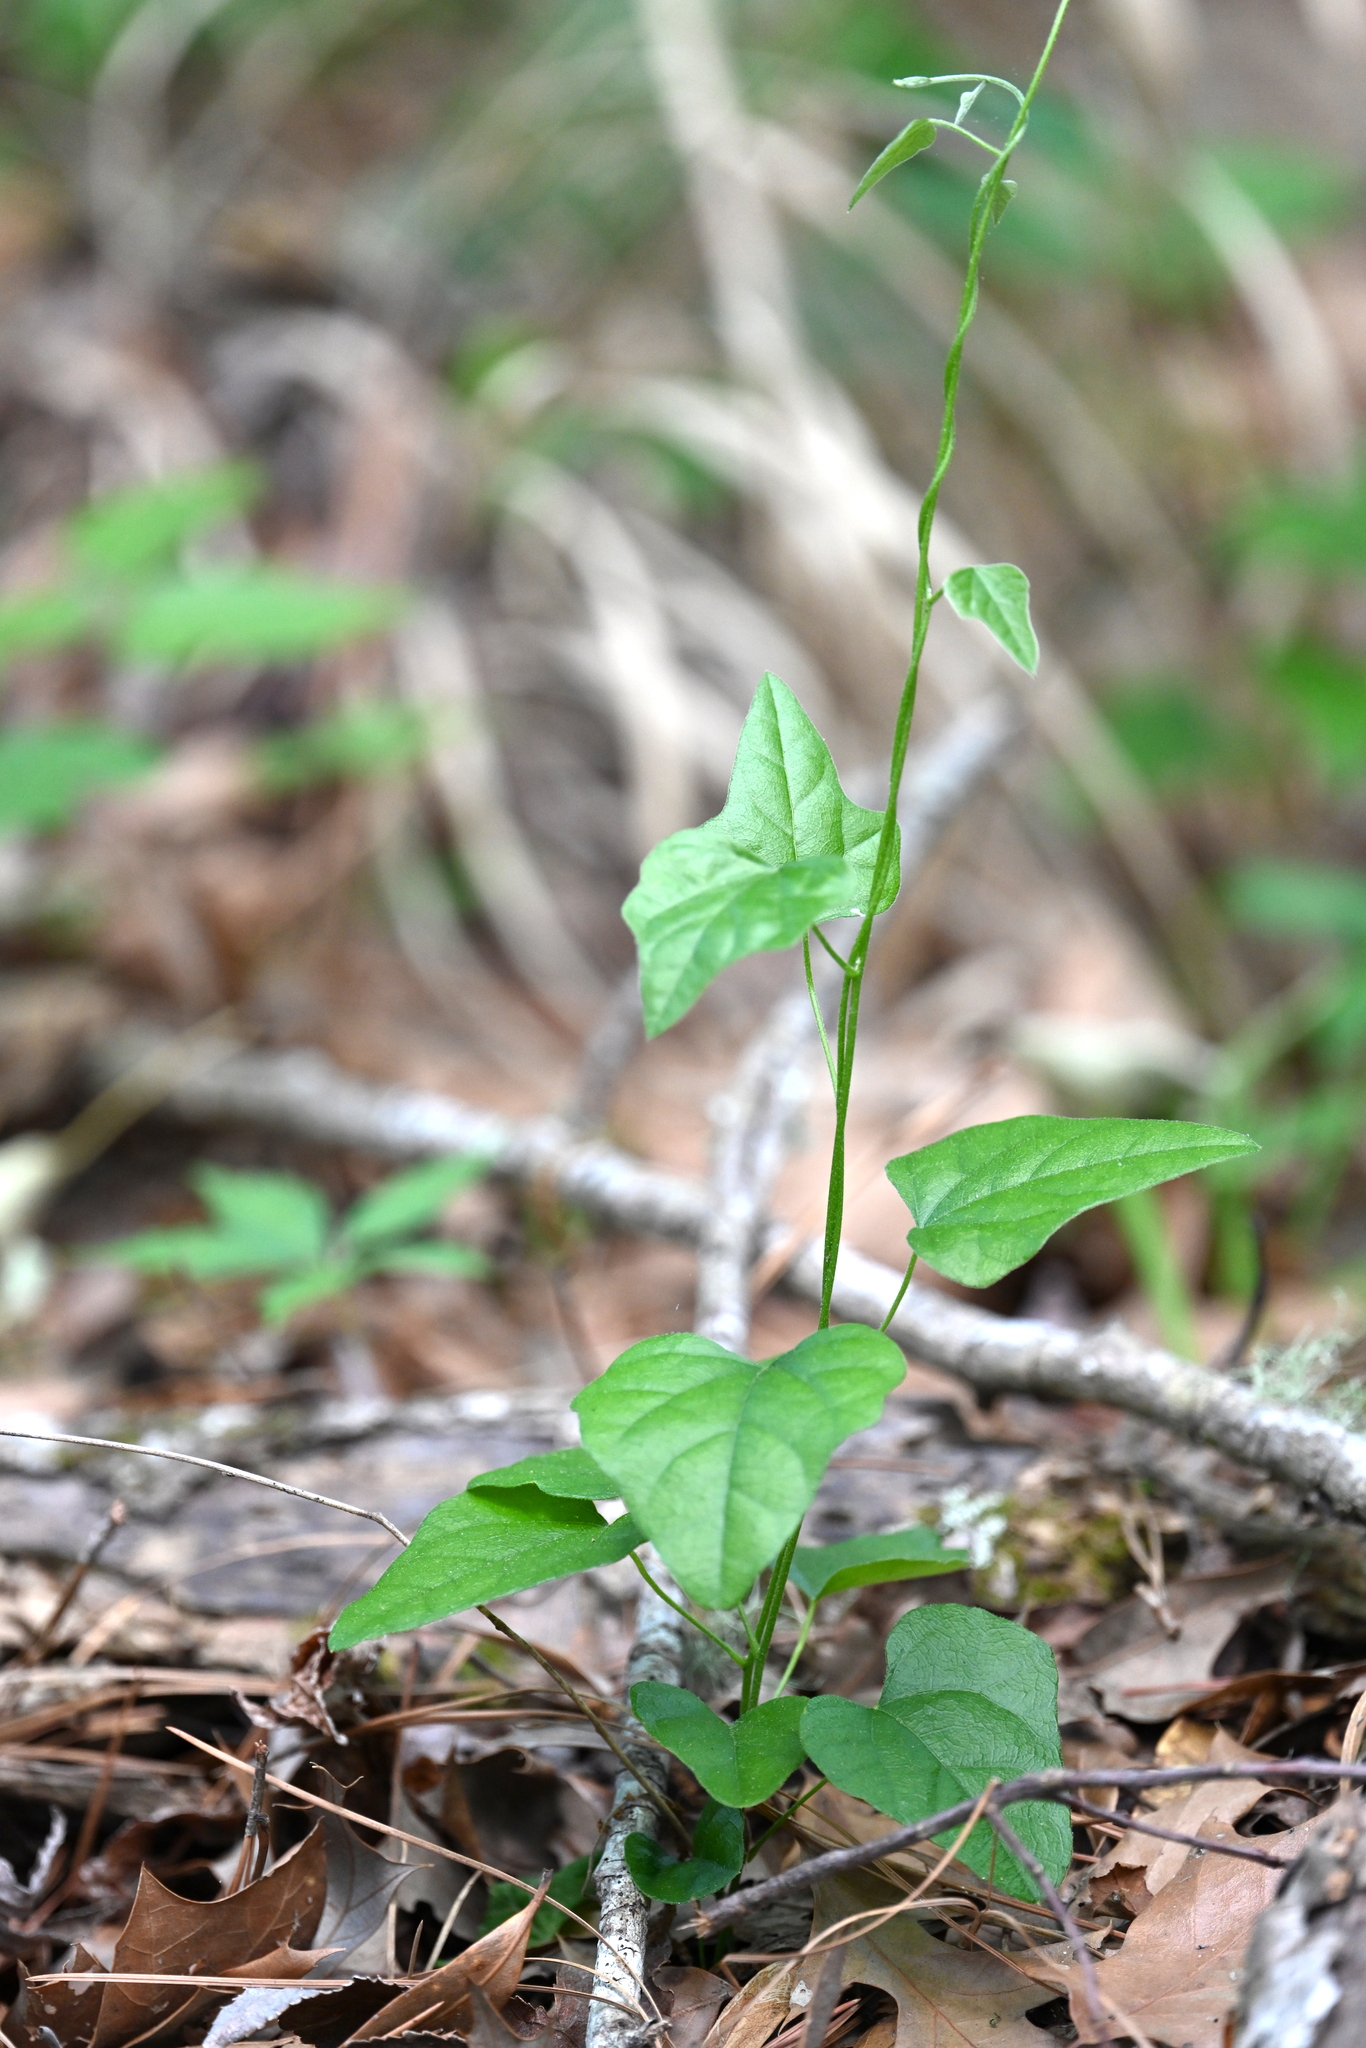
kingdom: Plantae
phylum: Tracheophyta
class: Magnoliopsida
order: Ranunculales
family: Menispermaceae
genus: Cocculus
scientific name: Cocculus carolinus
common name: Carolina moonseed
